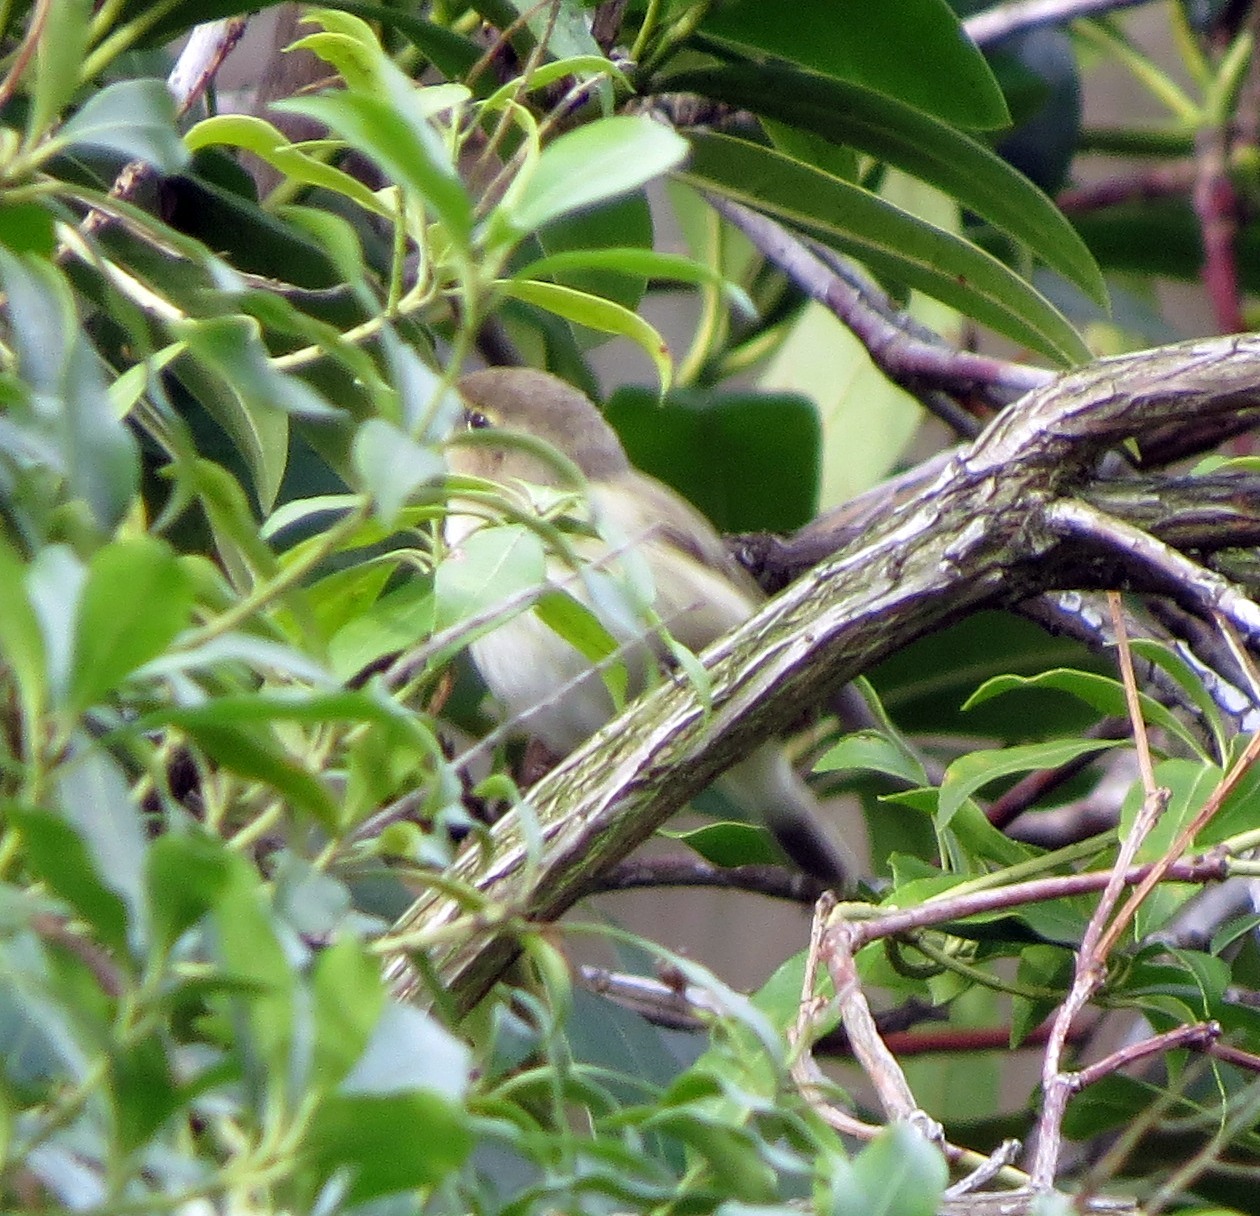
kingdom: Animalia
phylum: Chordata
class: Aves
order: Passeriformes
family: Phylloscopidae
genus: Phylloscopus
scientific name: Phylloscopus collybita
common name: Common chiffchaff
